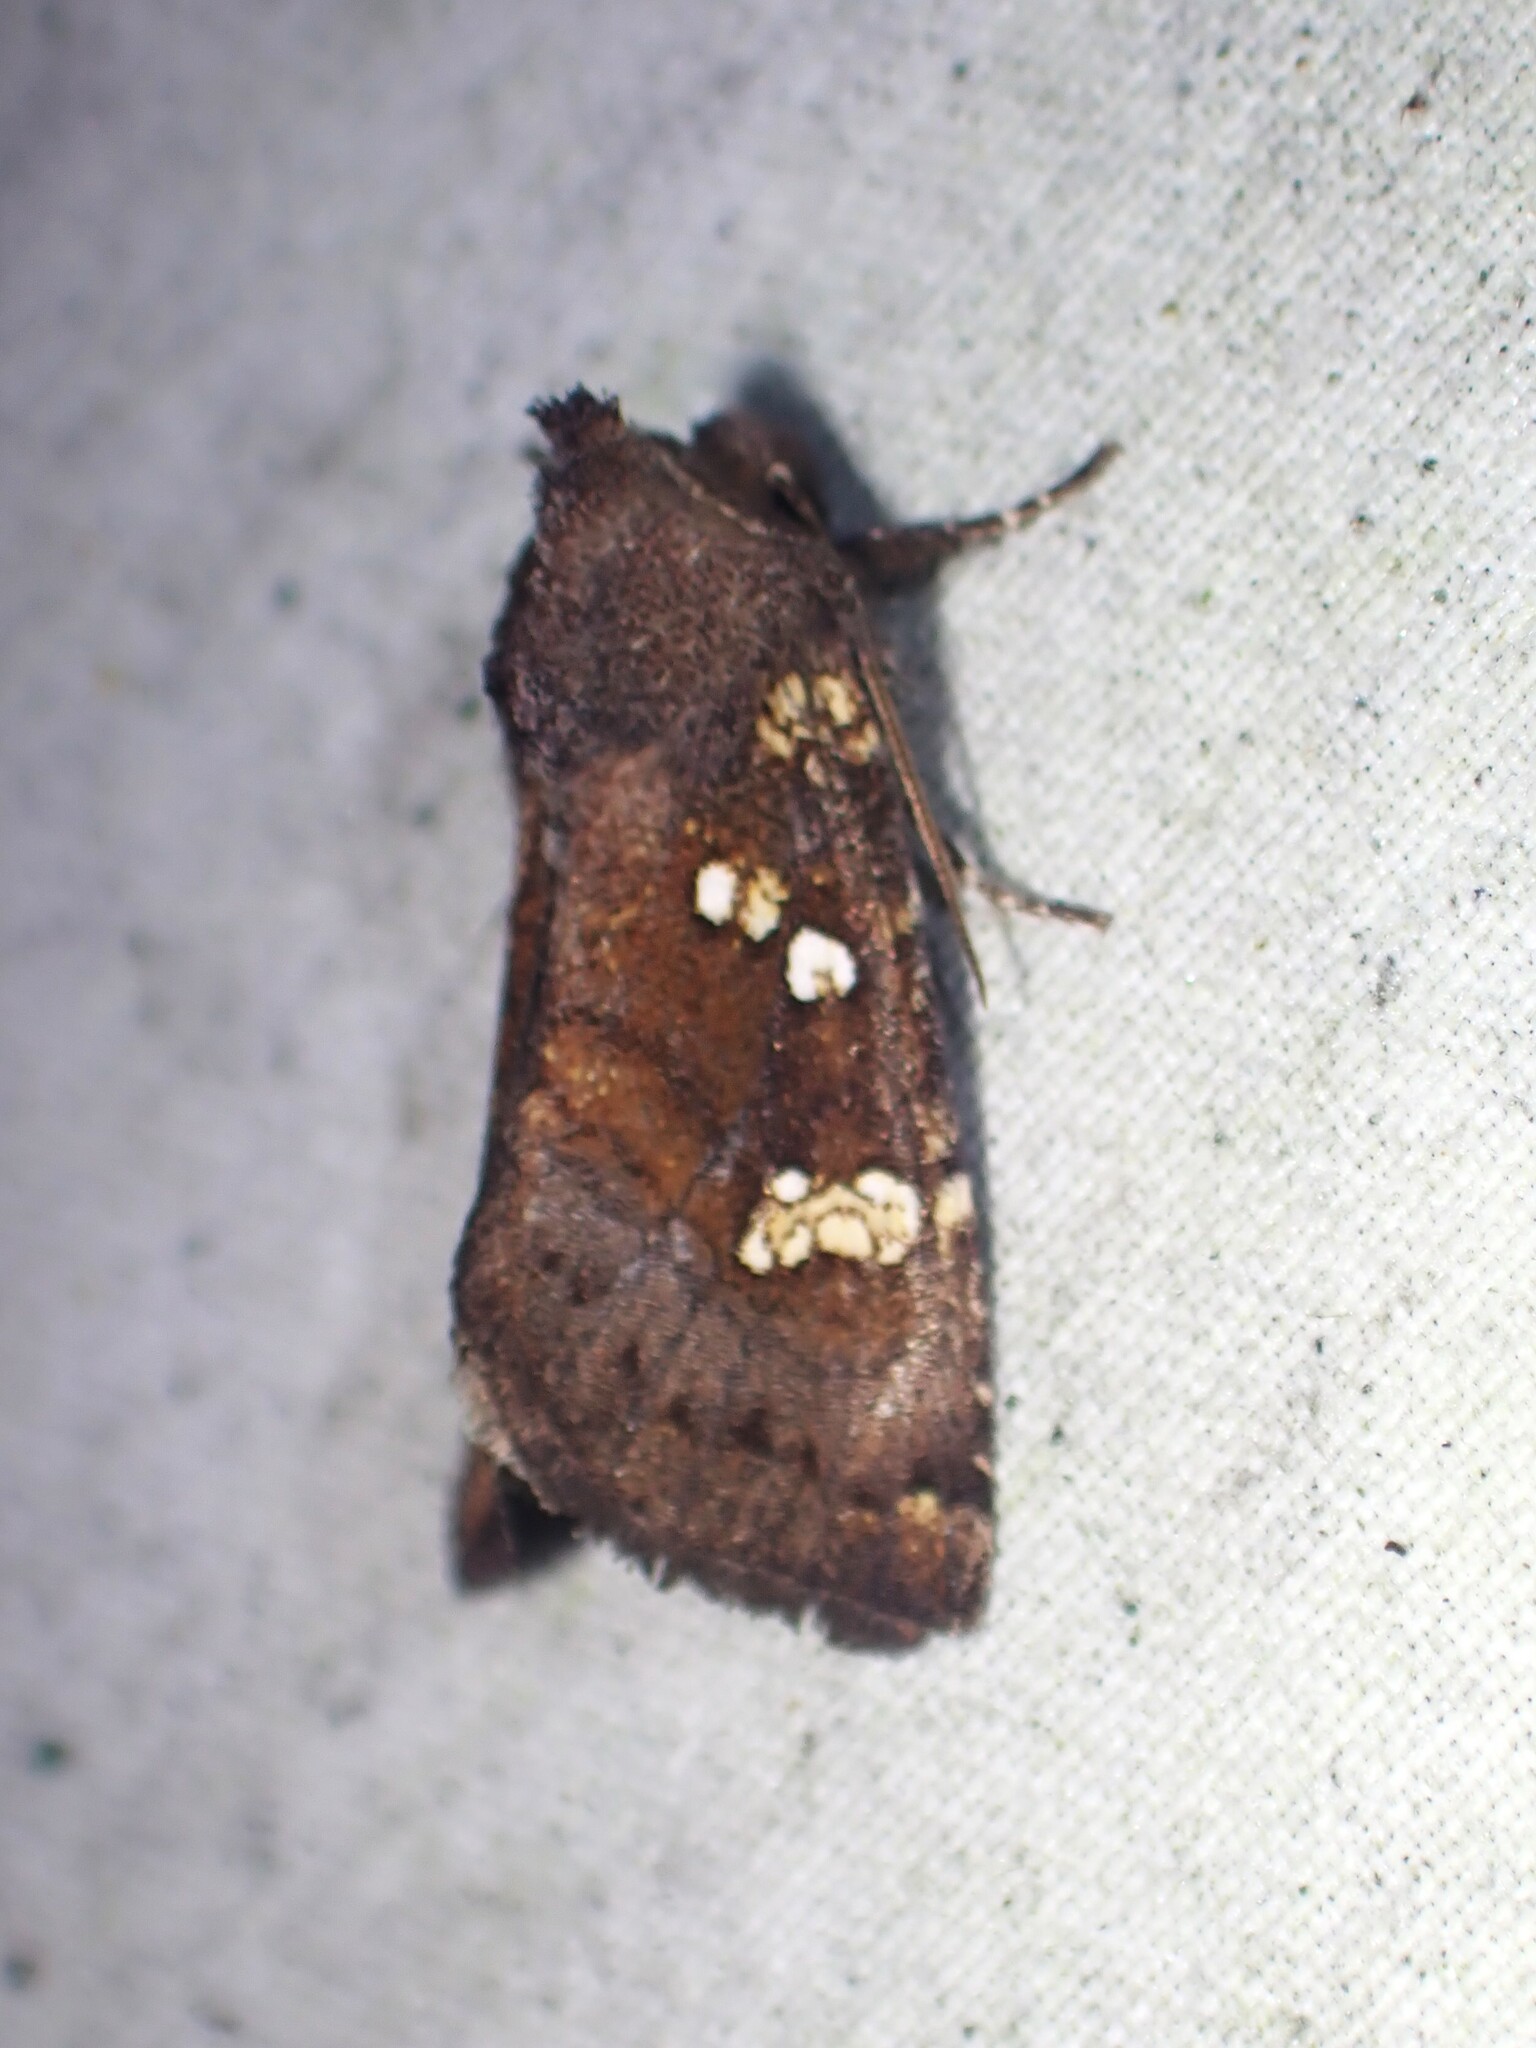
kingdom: Animalia
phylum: Arthropoda
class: Insecta
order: Lepidoptera
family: Noctuidae
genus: Papaipema
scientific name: Papaipema unimoda
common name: Meadow rue borer moth
